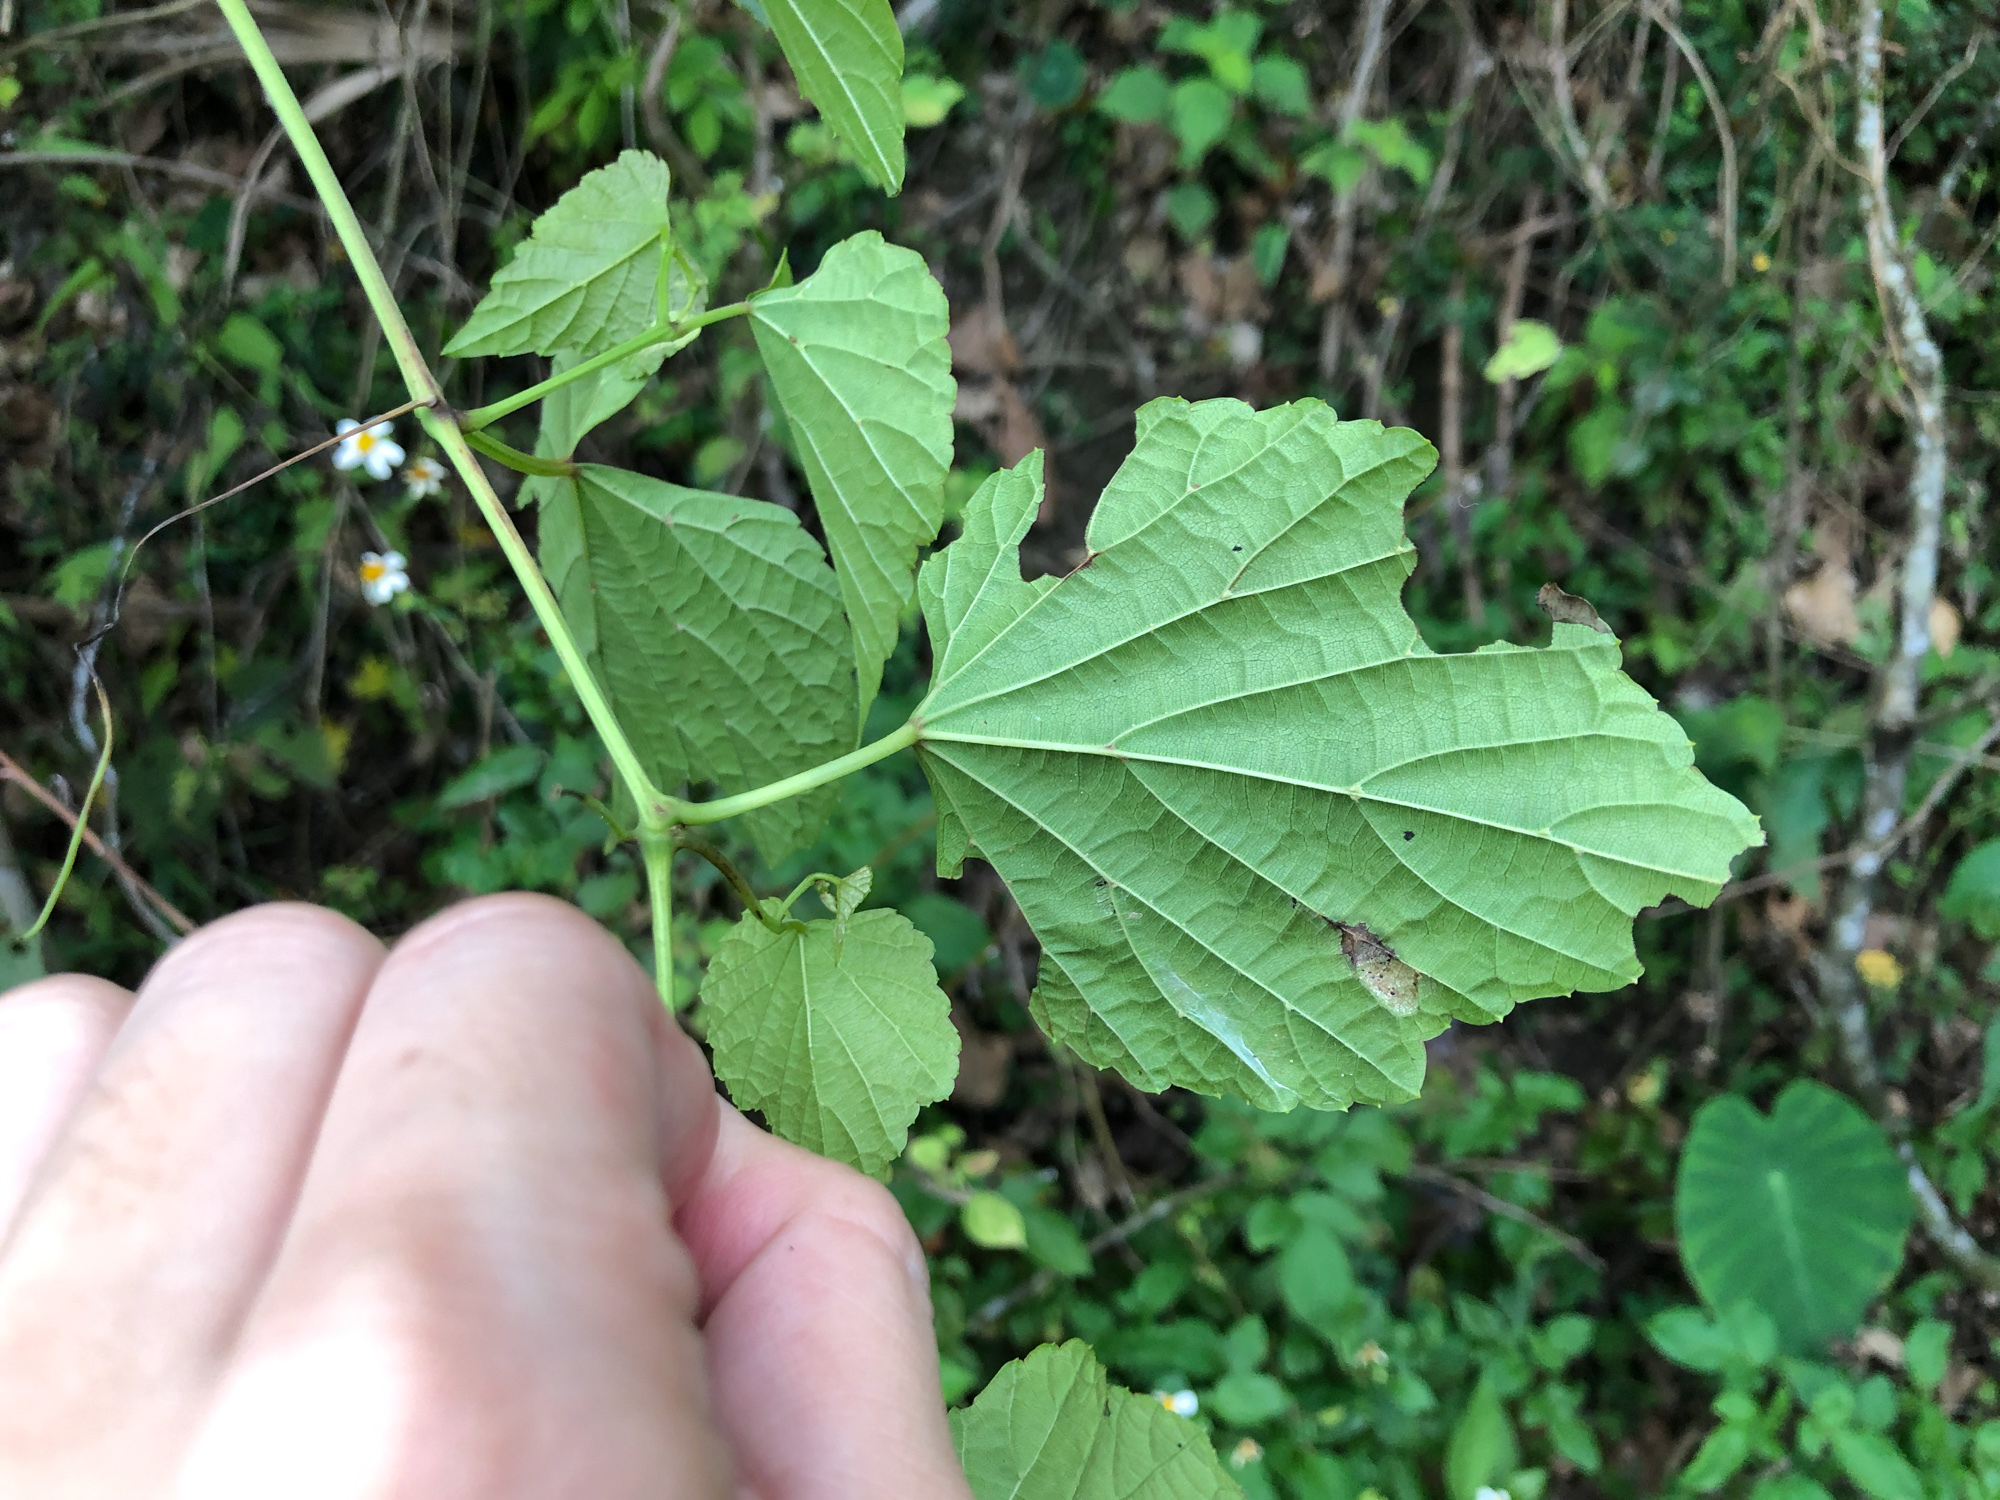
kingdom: Plantae
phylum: Tracheophyta
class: Magnoliopsida
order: Vitales
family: Vitaceae
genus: Ampelopsis
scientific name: Ampelopsis glandulosa
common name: Amur peppervine
